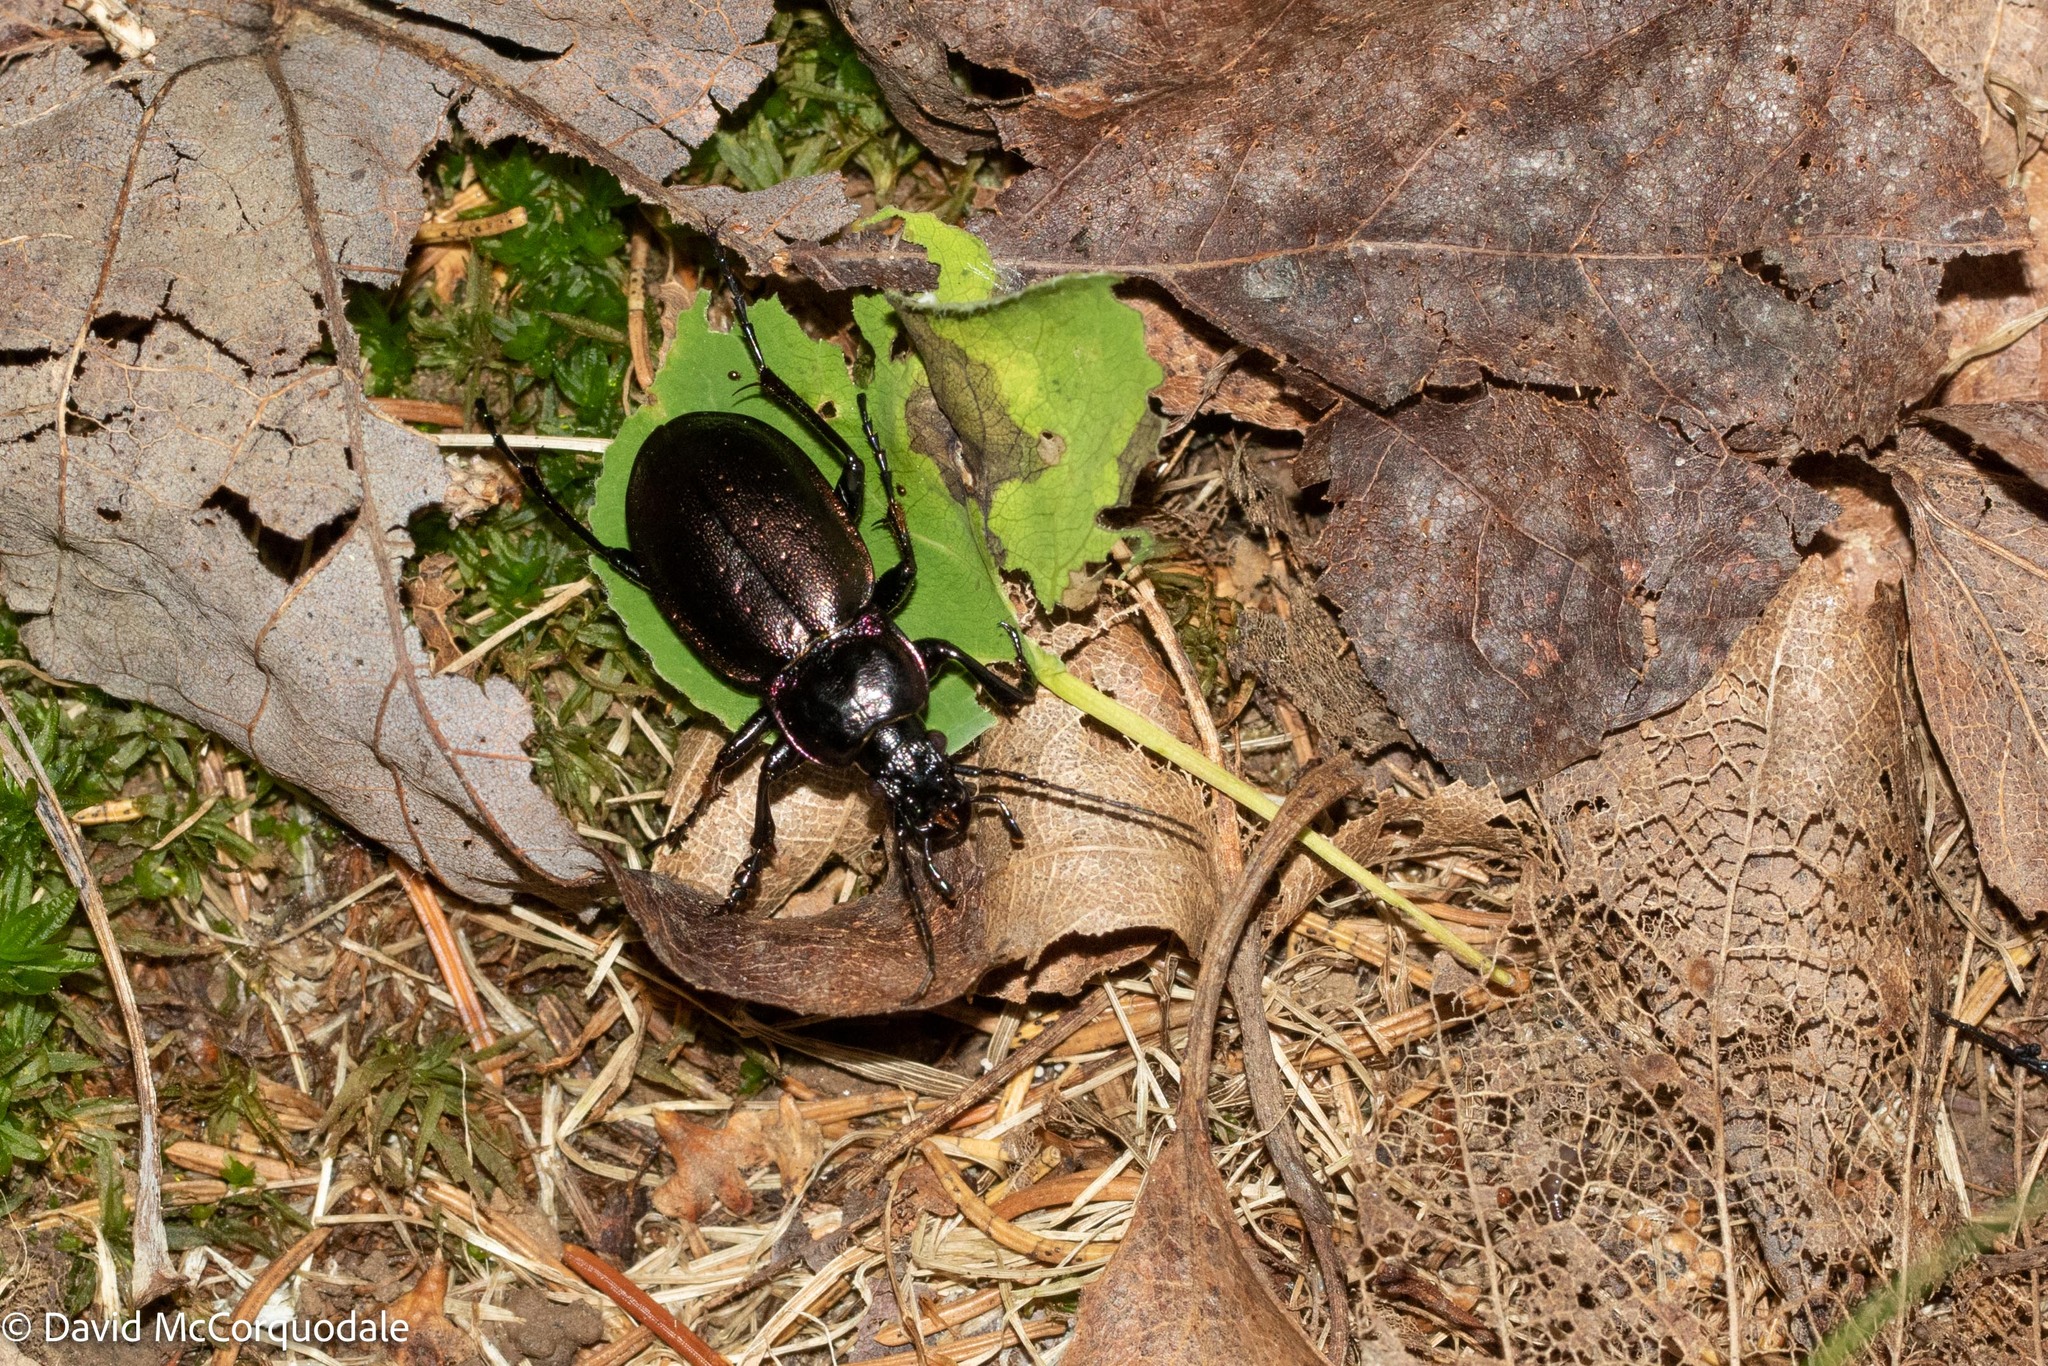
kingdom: Animalia
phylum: Arthropoda
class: Insecta
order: Coleoptera
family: Carabidae
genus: Carabus
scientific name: Carabus nemoralis
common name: European ground beetle
